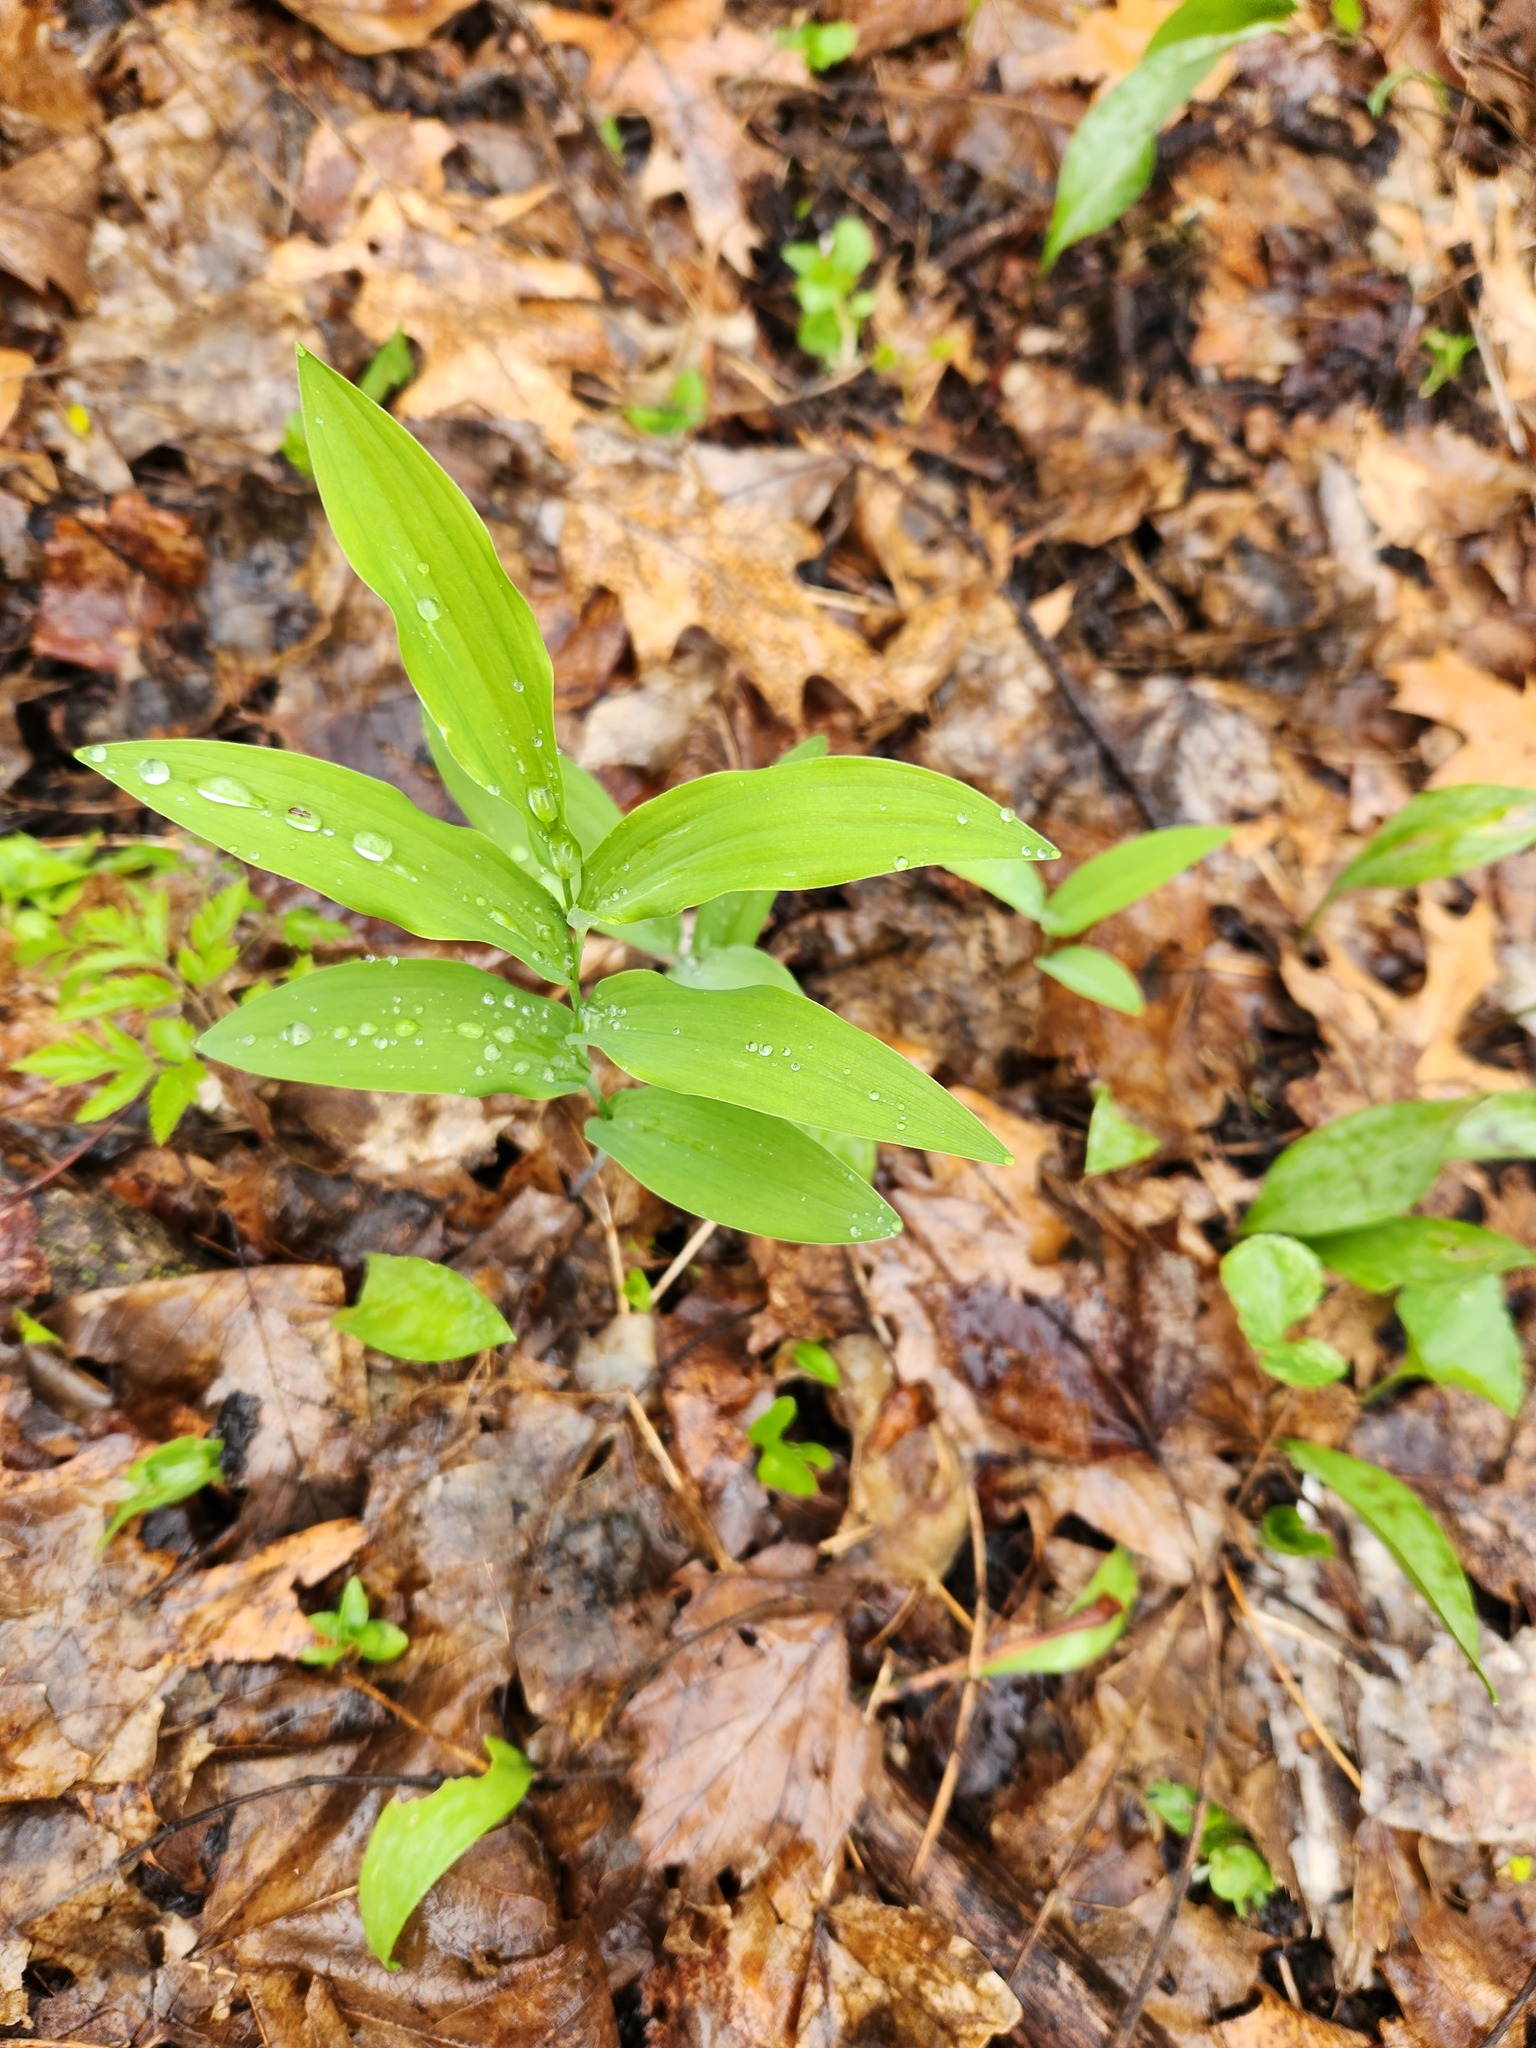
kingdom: Plantae
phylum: Tracheophyta
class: Liliopsida
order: Asparagales
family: Asparagaceae
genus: Polygonatum
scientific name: Polygonatum biflorum
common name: American solomon's-seal
